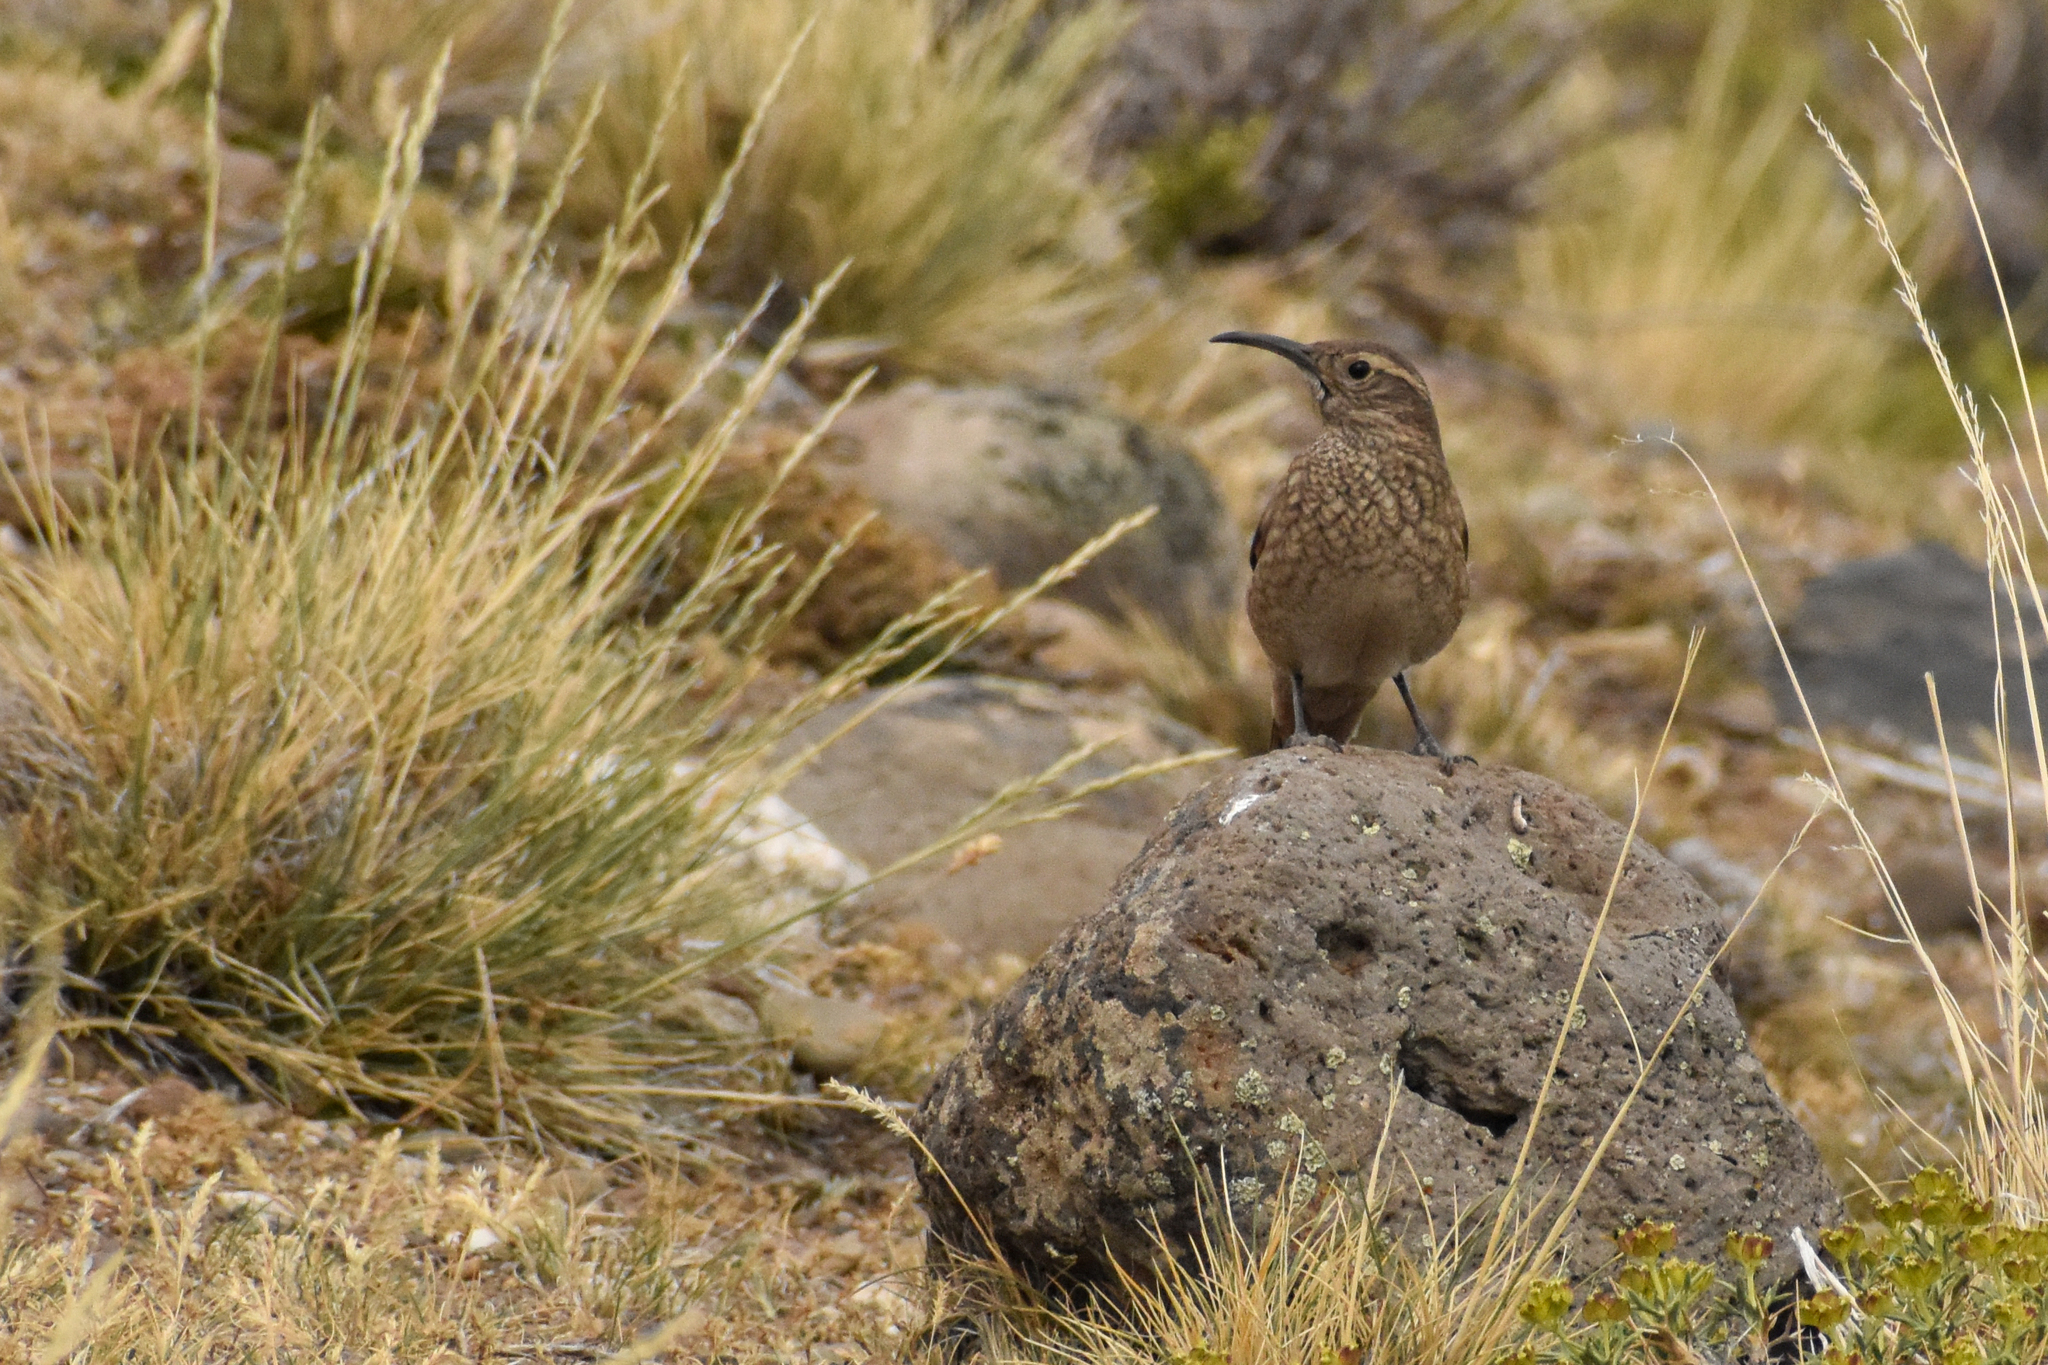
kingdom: Animalia
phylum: Chordata
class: Aves
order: Passeriformes
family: Furnariidae
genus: Upucerthia
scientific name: Upucerthia dumetaria
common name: Scale-throated earthcreeper
